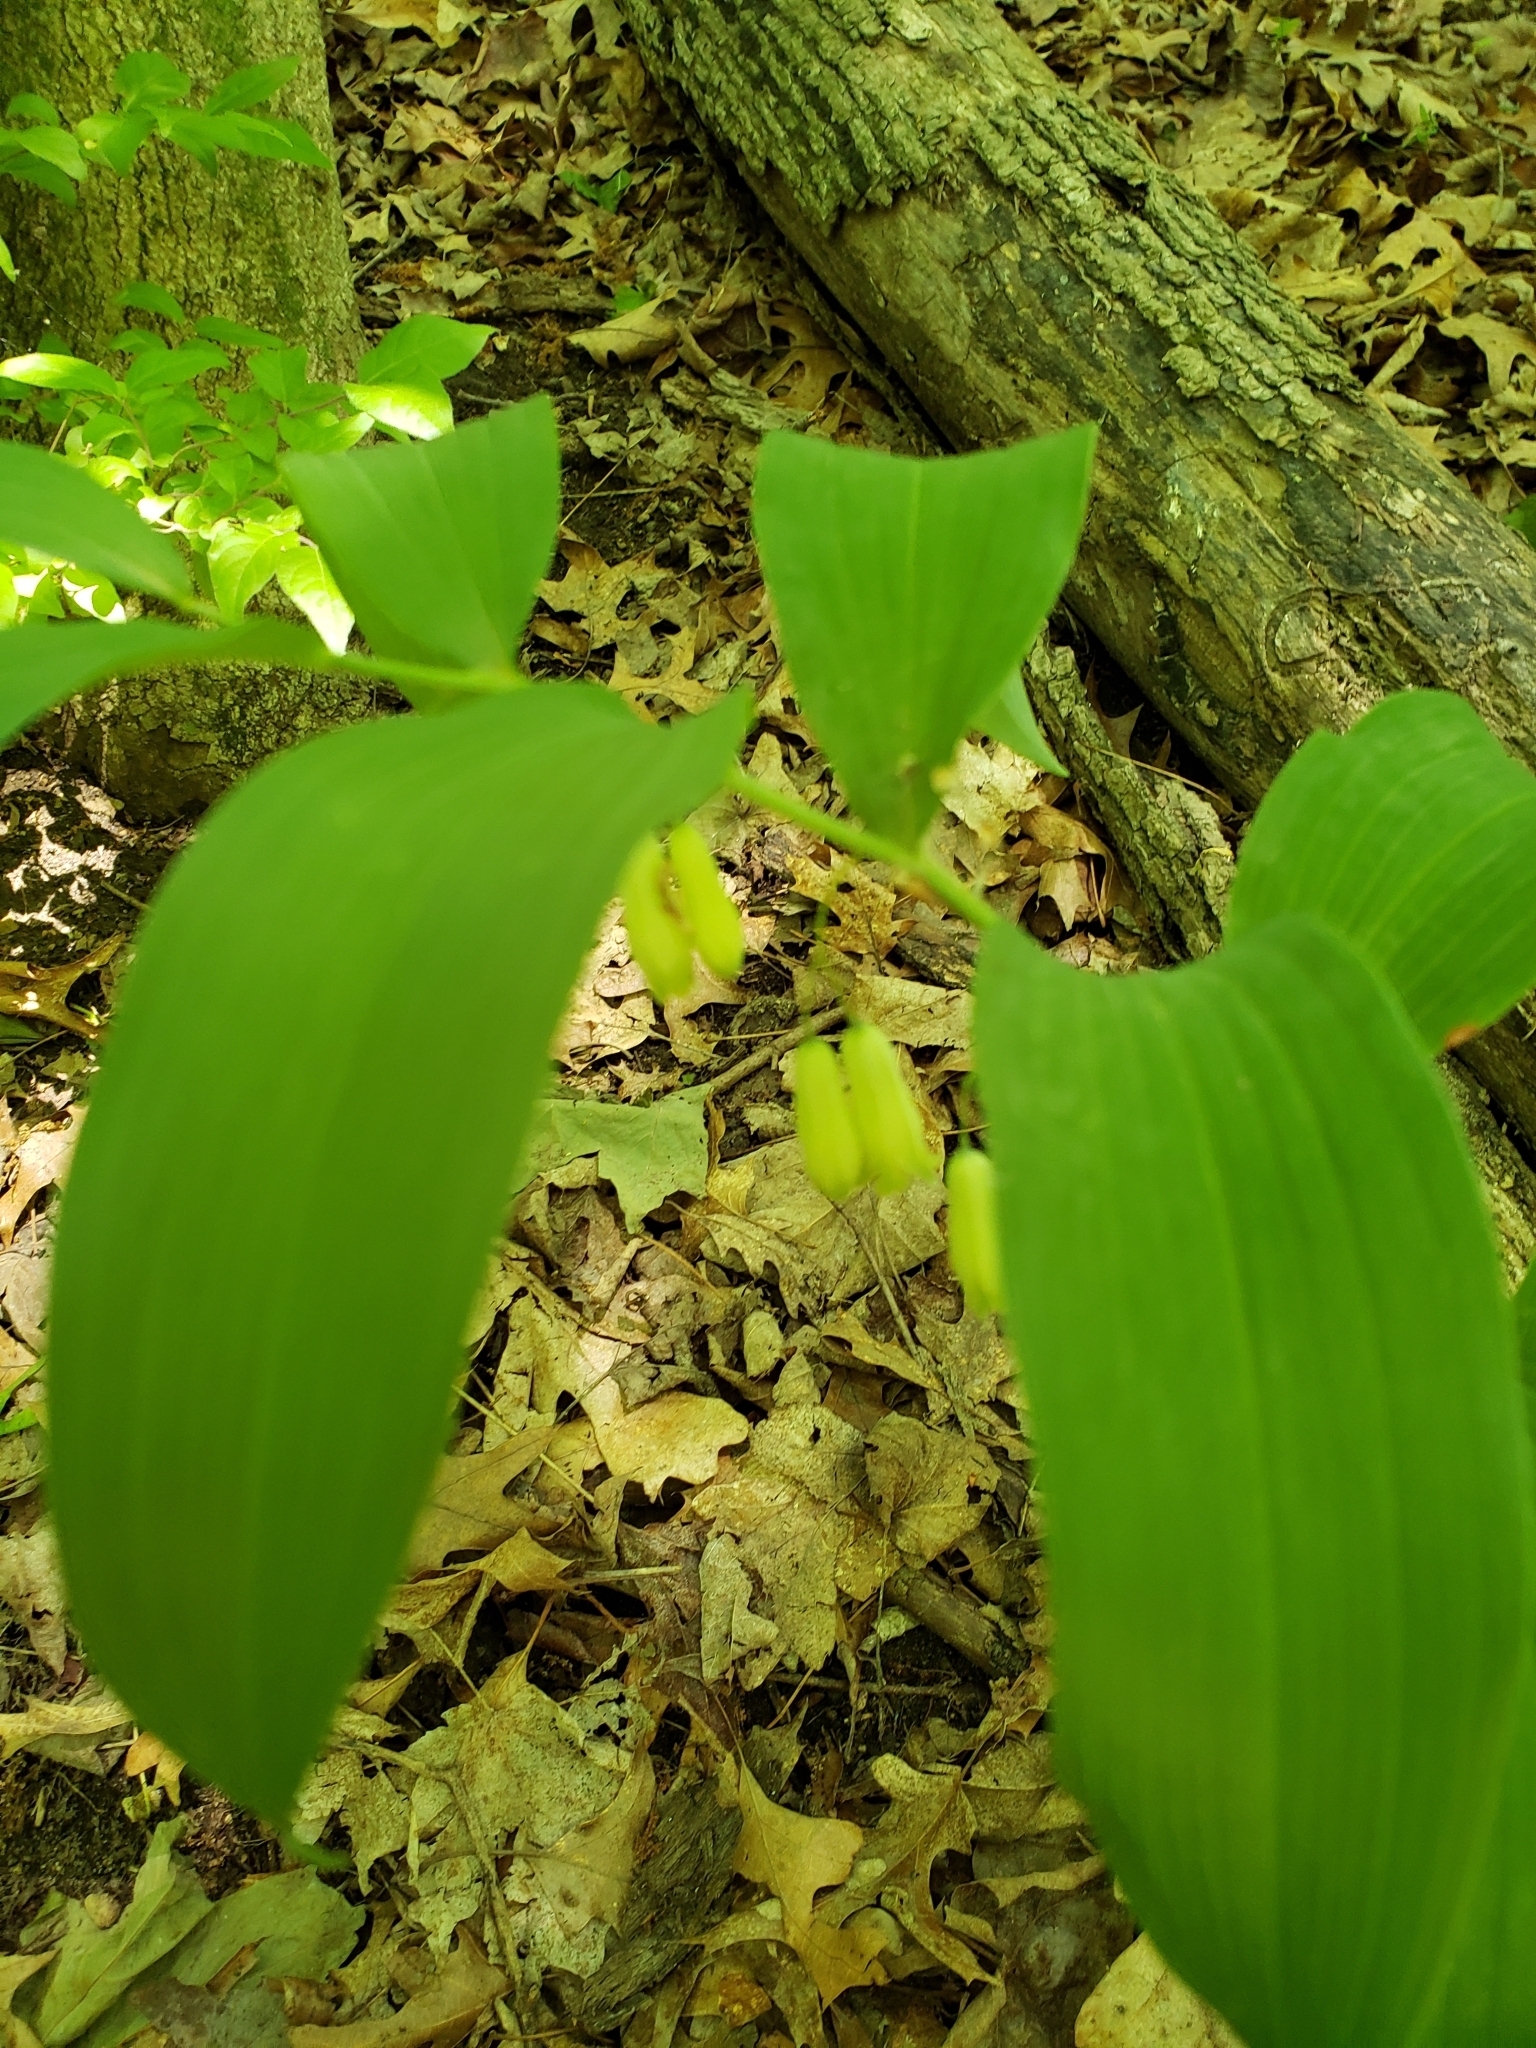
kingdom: Plantae
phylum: Tracheophyta
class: Liliopsida
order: Asparagales
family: Asparagaceae
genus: Polygonatum
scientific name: Polygonatum biflorum
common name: American solomon's-seal
